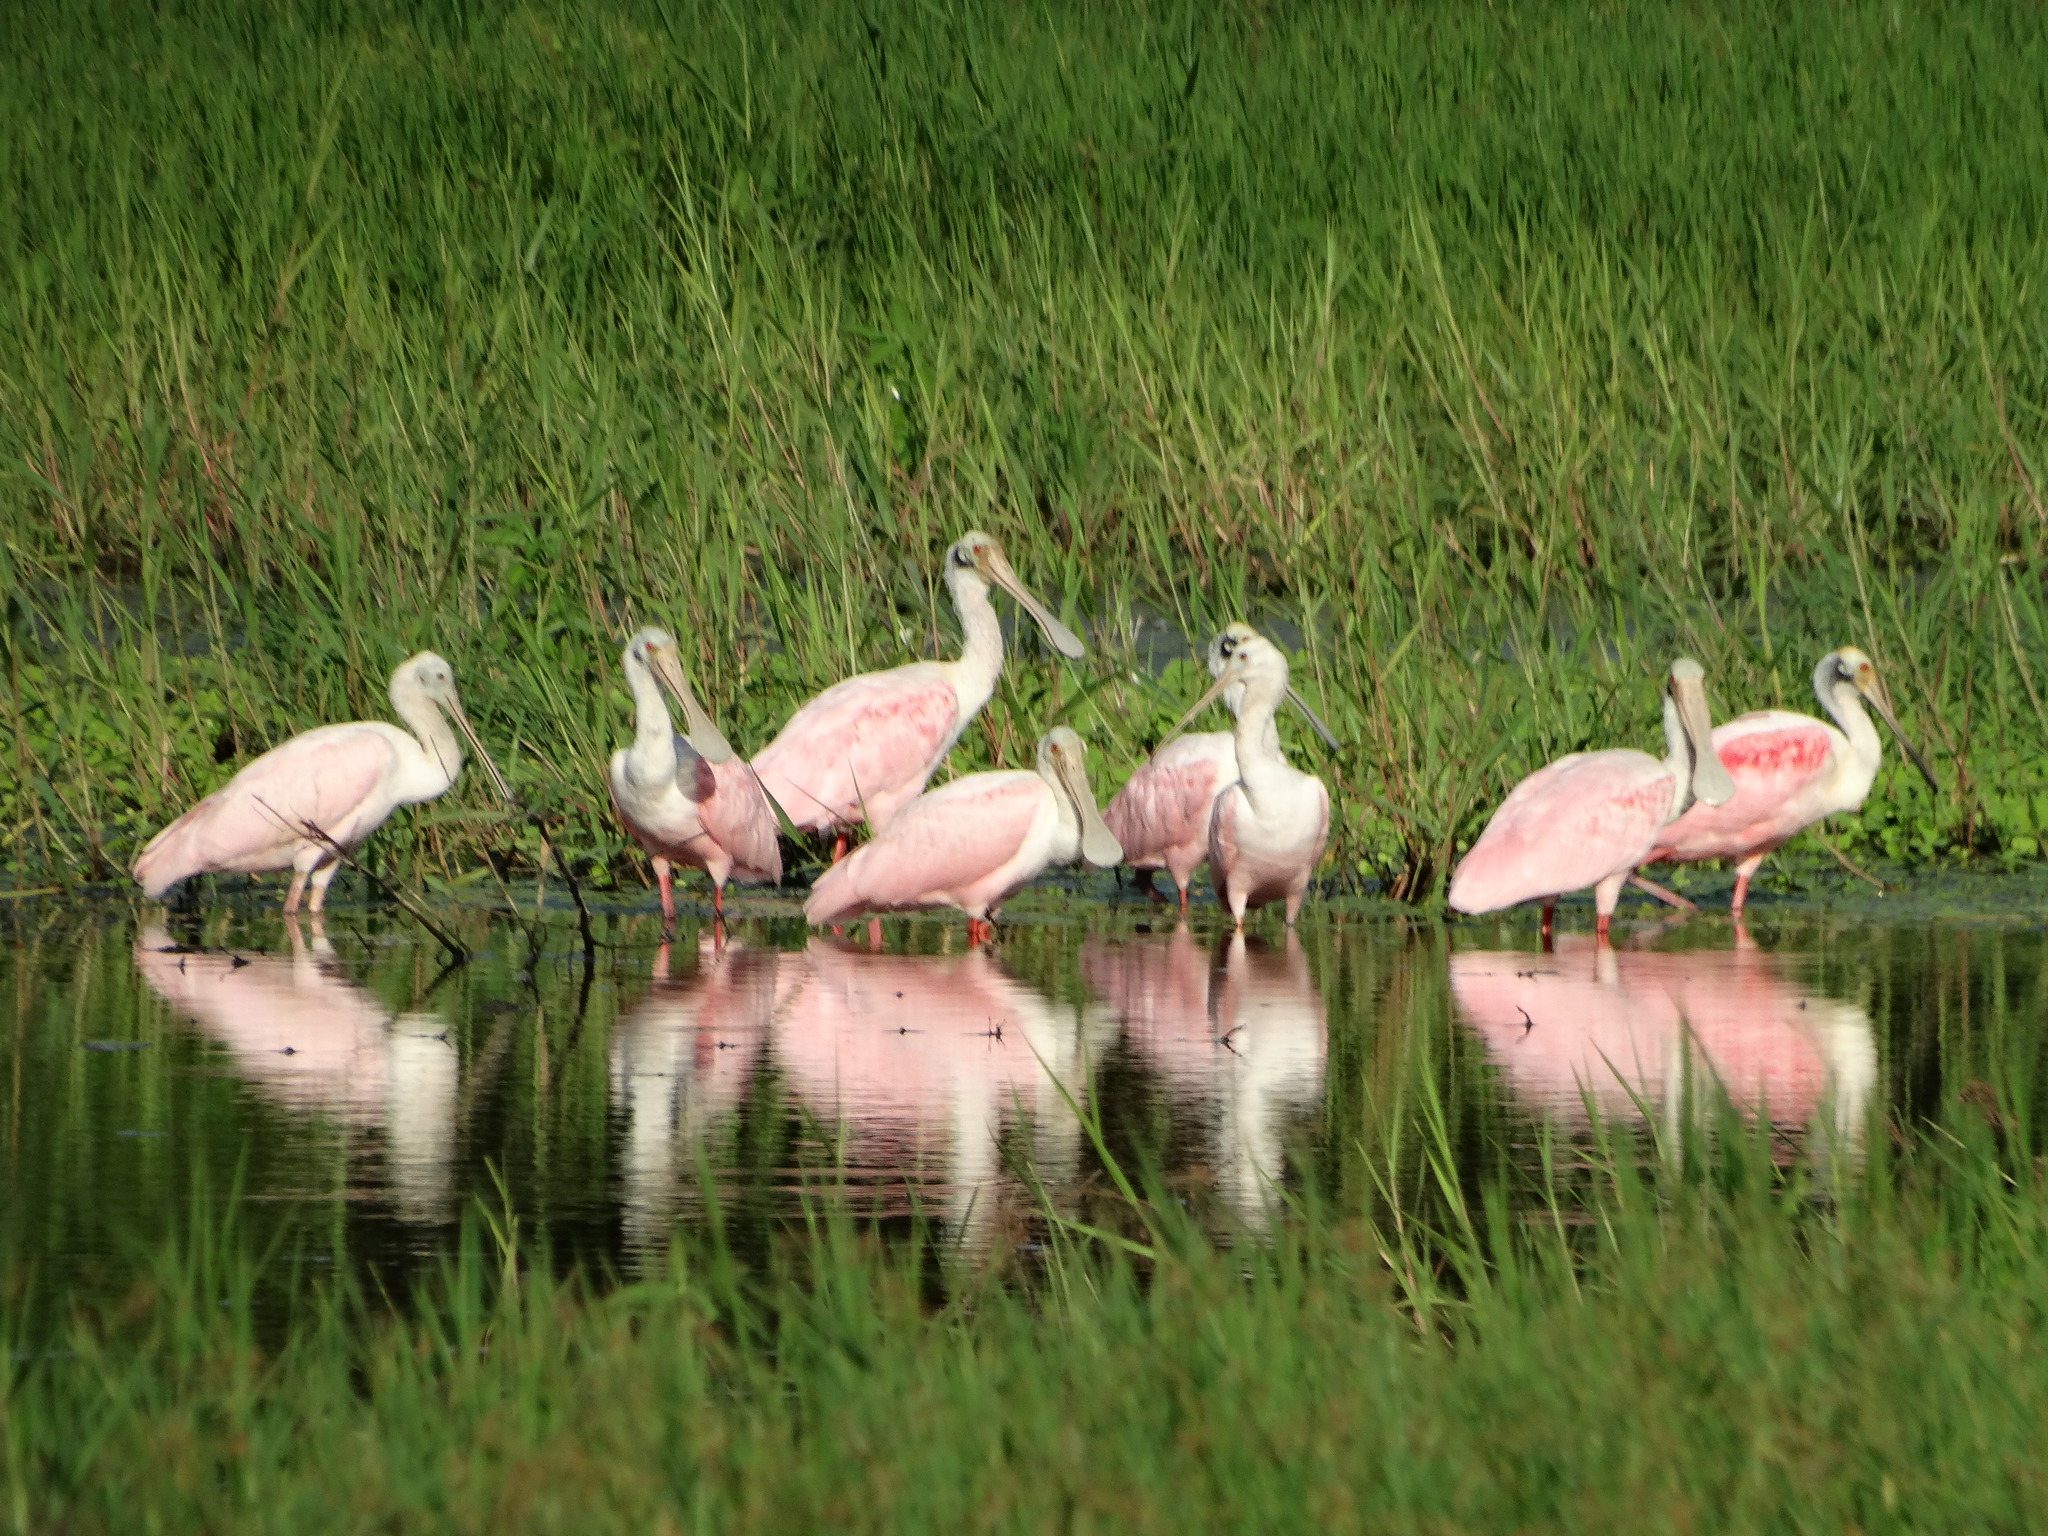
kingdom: Animalia
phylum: Chordata
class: Aves
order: Pelecaniformes
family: Threskiornithidae
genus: Platalea
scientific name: Platalea ajaja
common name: Roseate spoonbill
